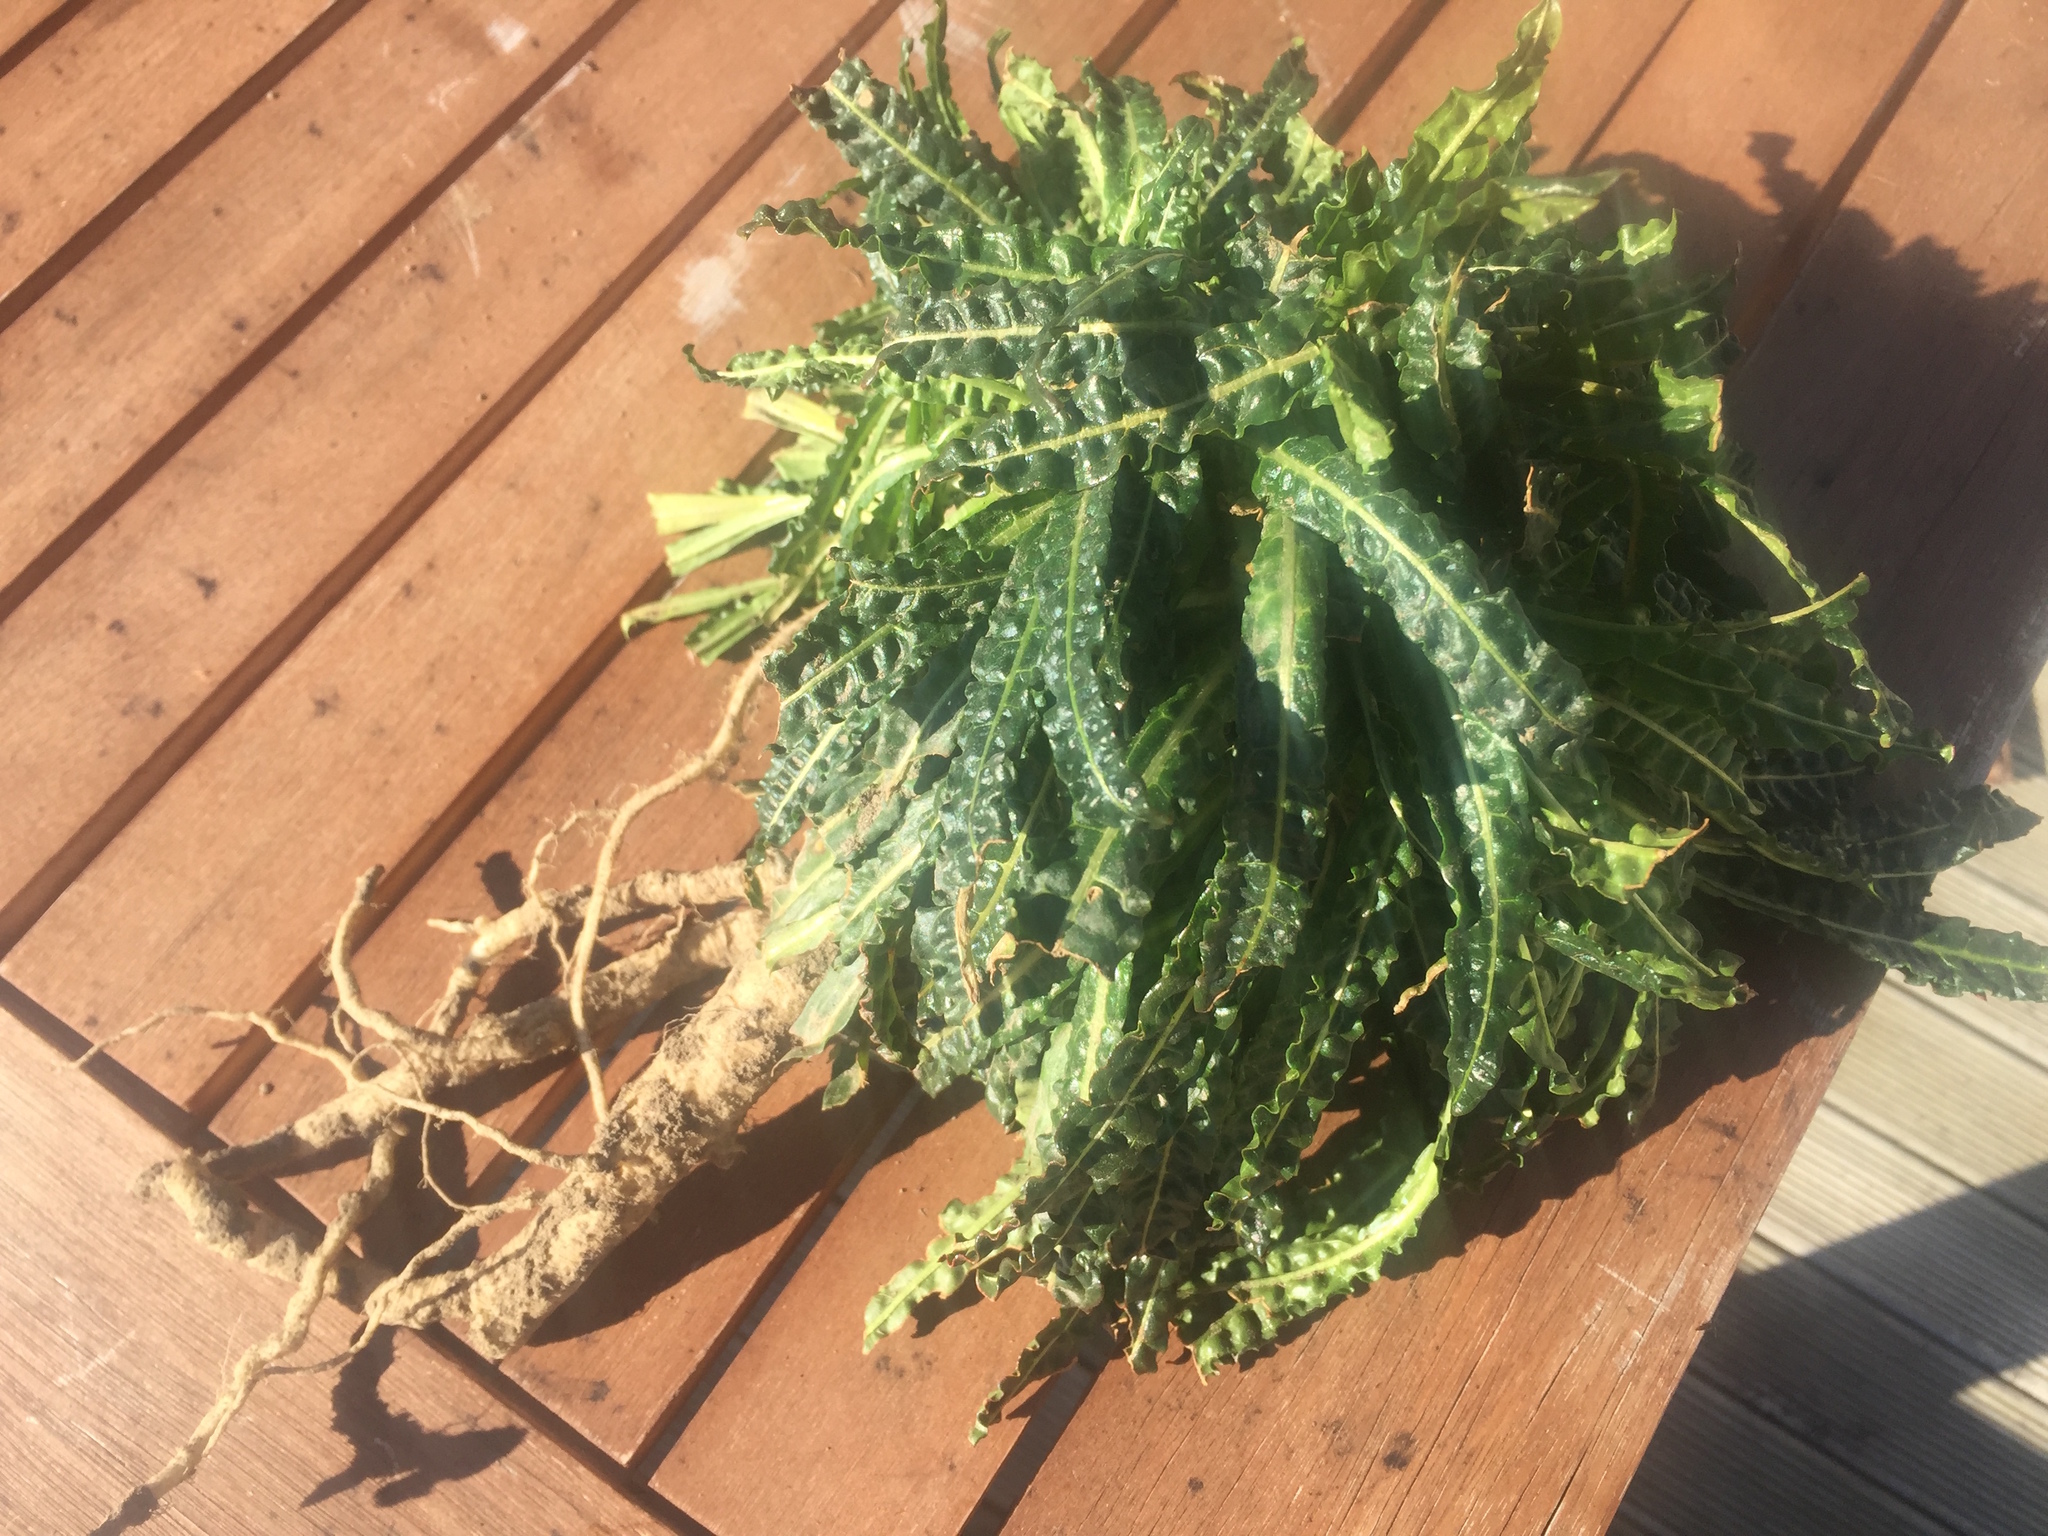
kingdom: Plantae
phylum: Tracheophyta
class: Magnoliopsida
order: Brassicales
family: Resedaceae
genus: Reseda
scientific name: Reseda luteola
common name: Weld
